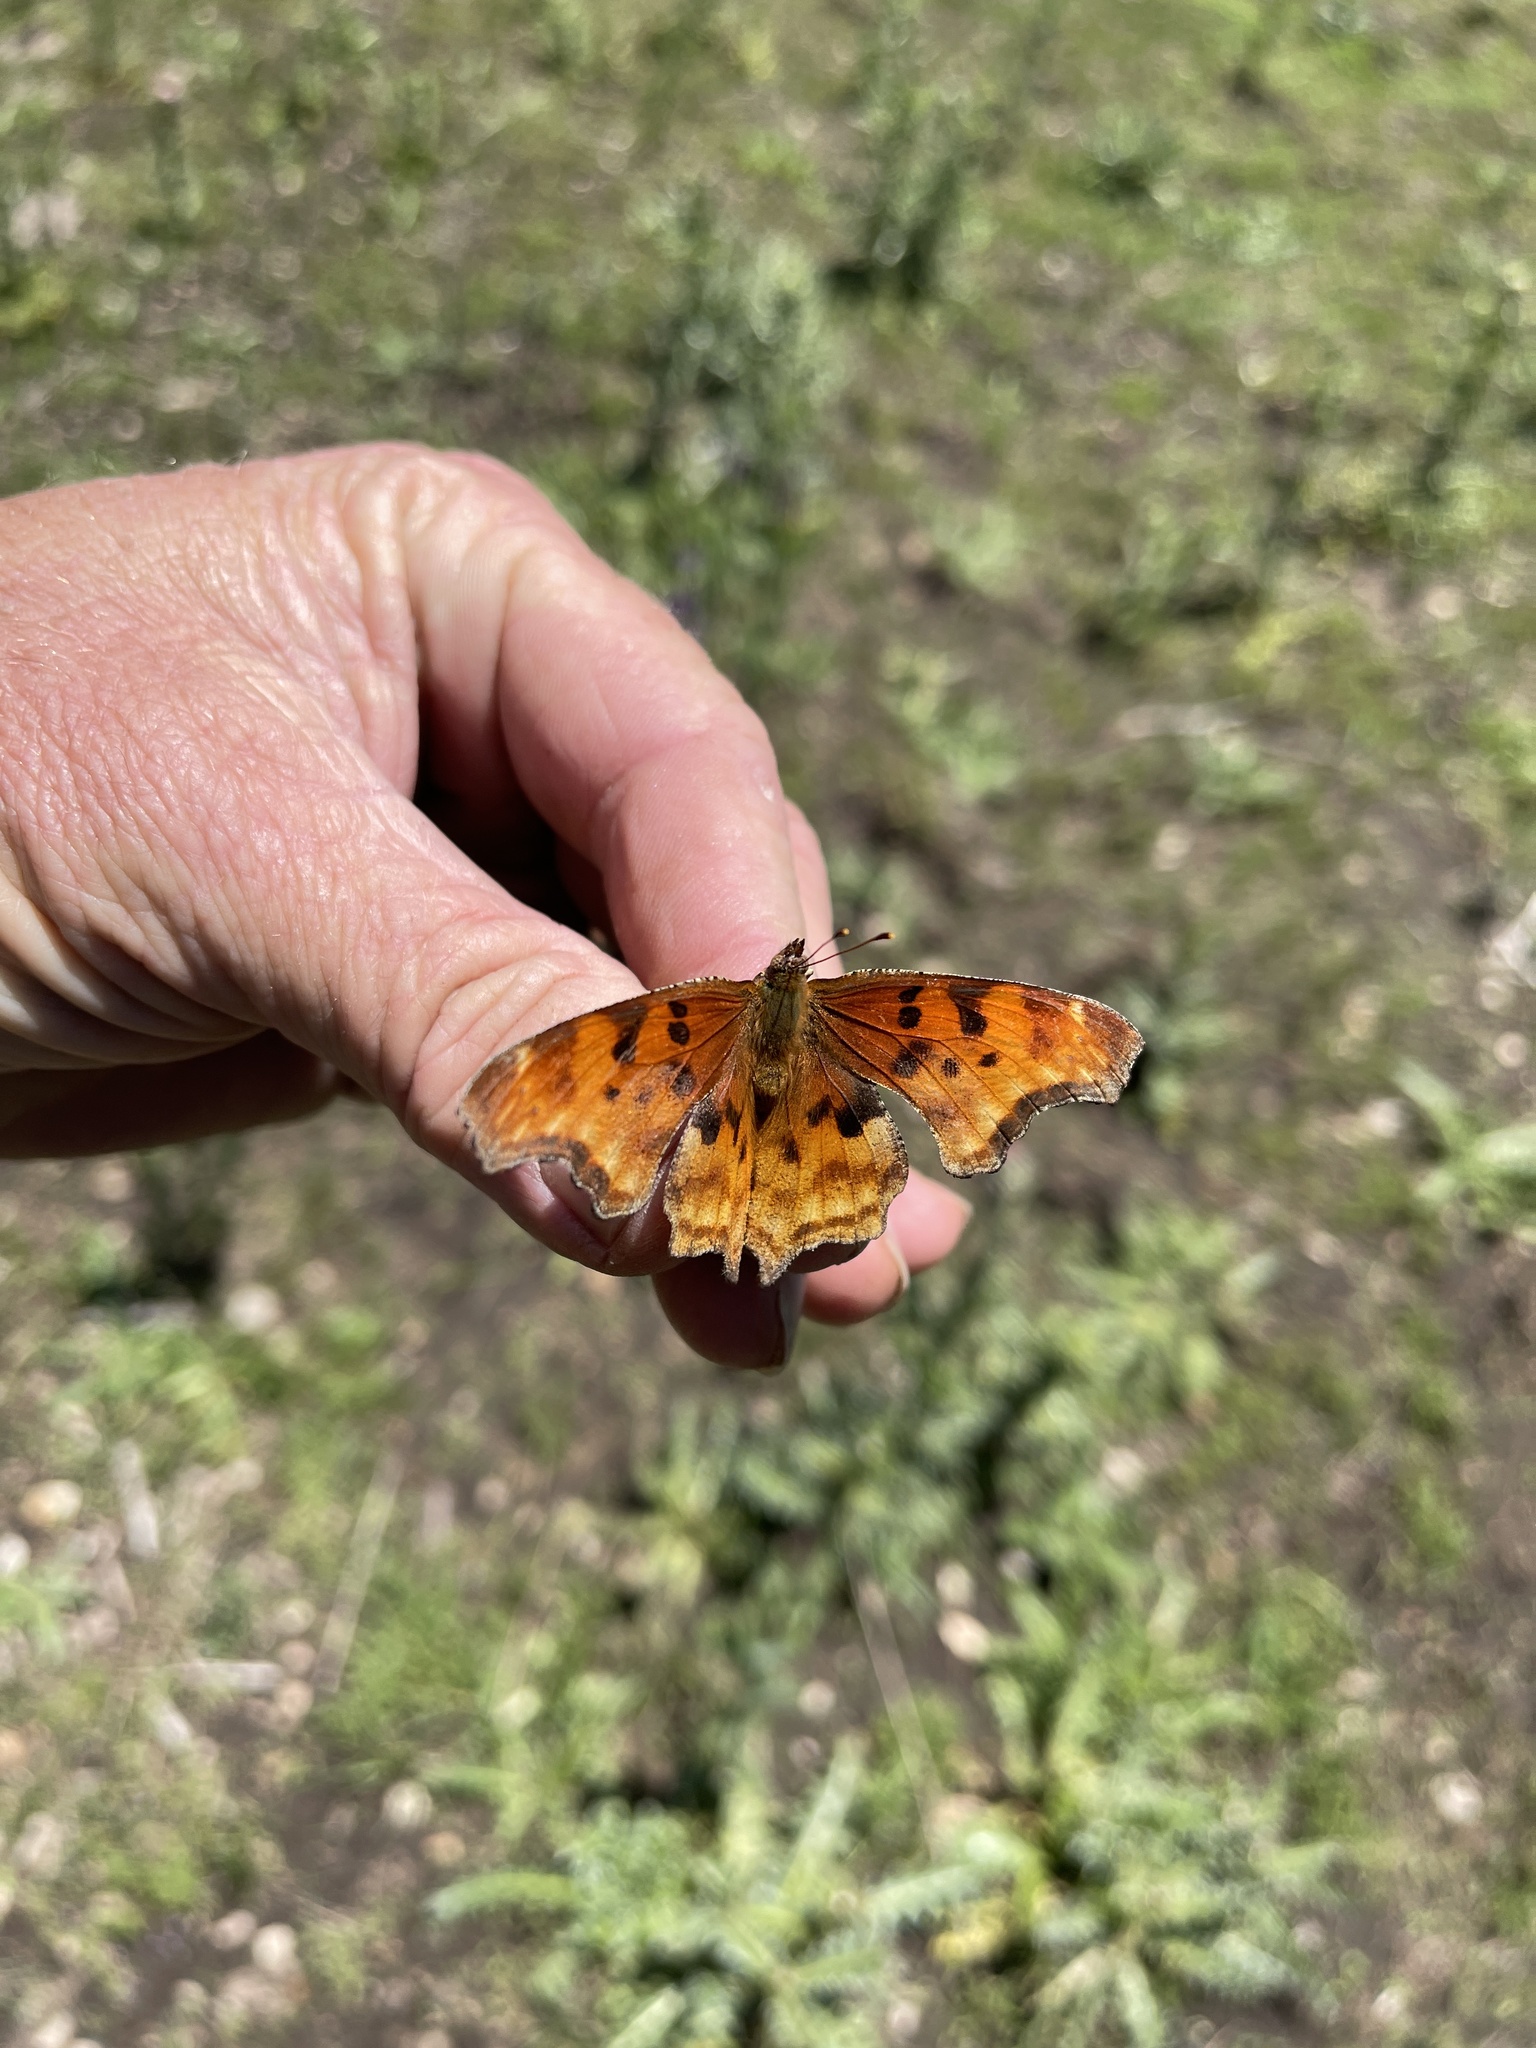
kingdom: Animalia
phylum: Arthropoda
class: Insecta
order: Lepidoptera
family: Nymphalidae
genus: Polygonia
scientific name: Polygonia satyrus
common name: Satyr angle wing
